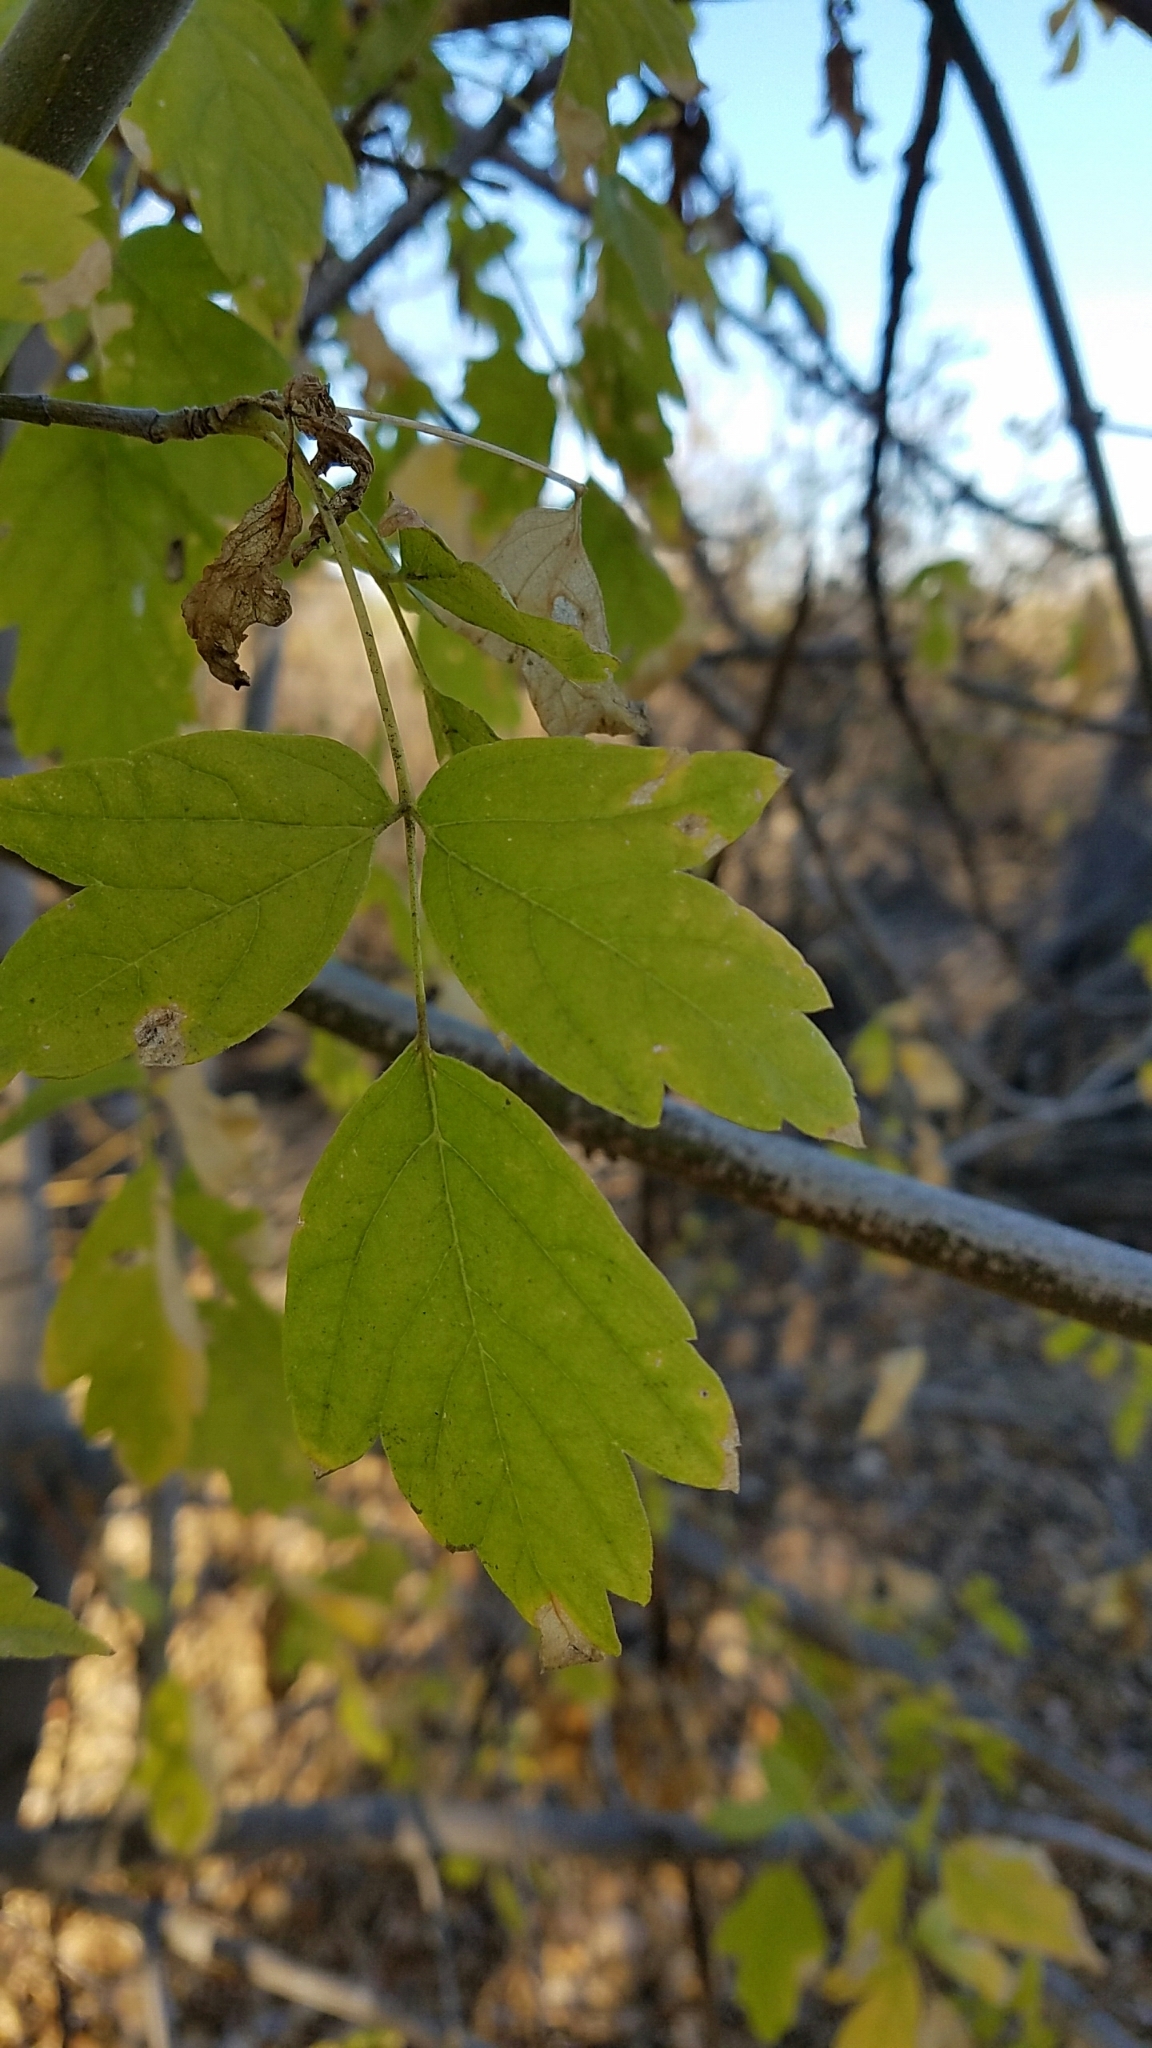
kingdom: Plantae
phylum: Tracheophyta
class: Magnoliopsida
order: Sapindales
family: Sapindaceae
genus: Acer
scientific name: Acer negundo
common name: Ashleaf maple
